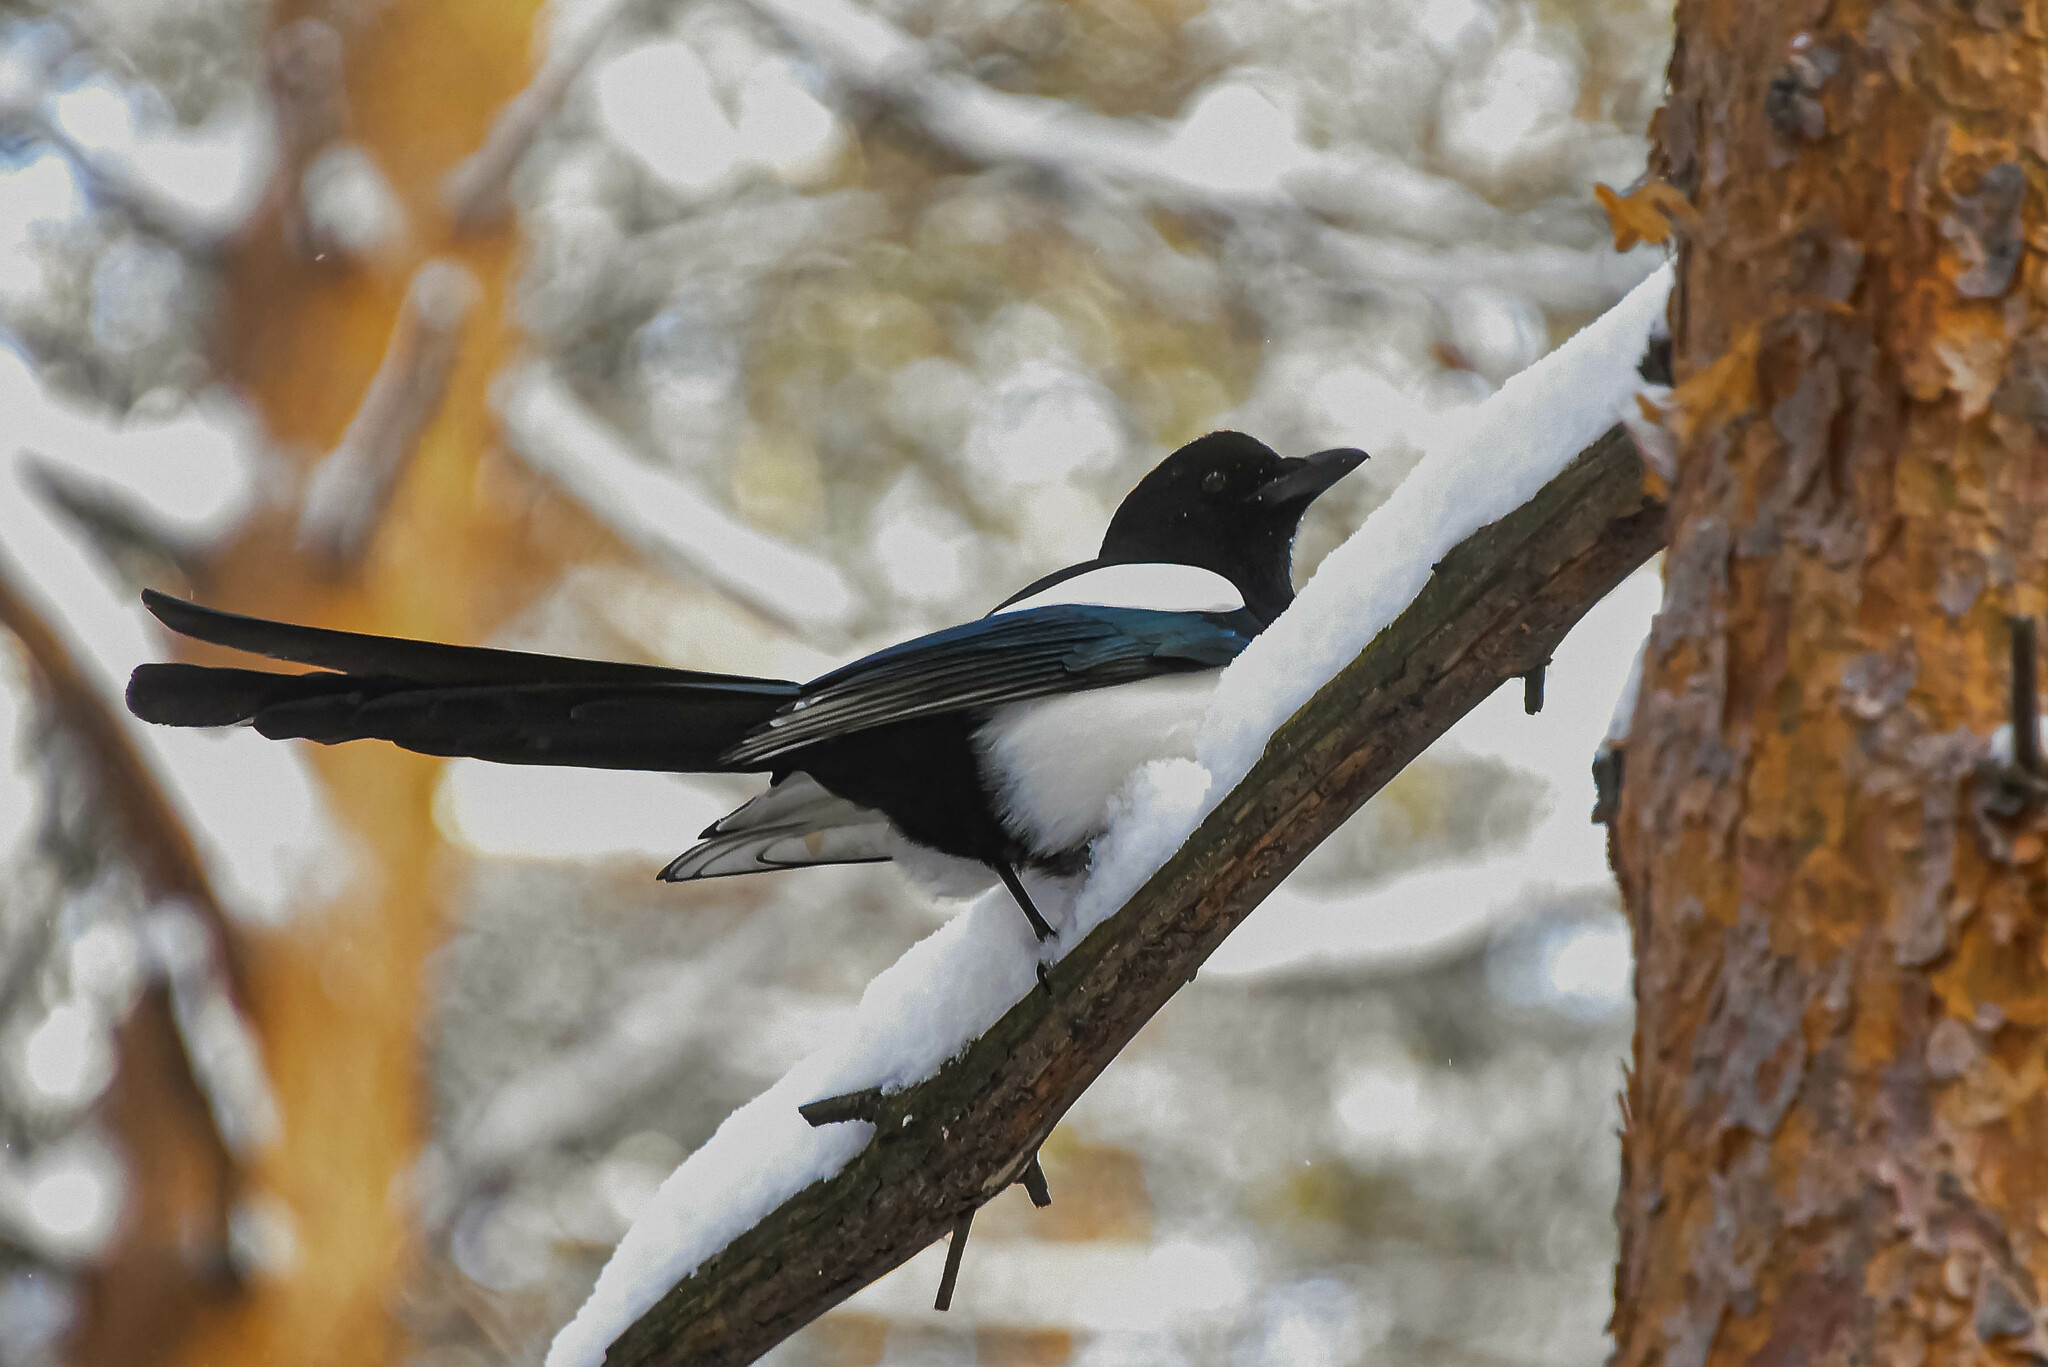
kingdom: Animalia
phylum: Chordata
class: Aves
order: Passeriformes
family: Corvidae
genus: Pica
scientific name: Pica pica
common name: Eurasian magpie
